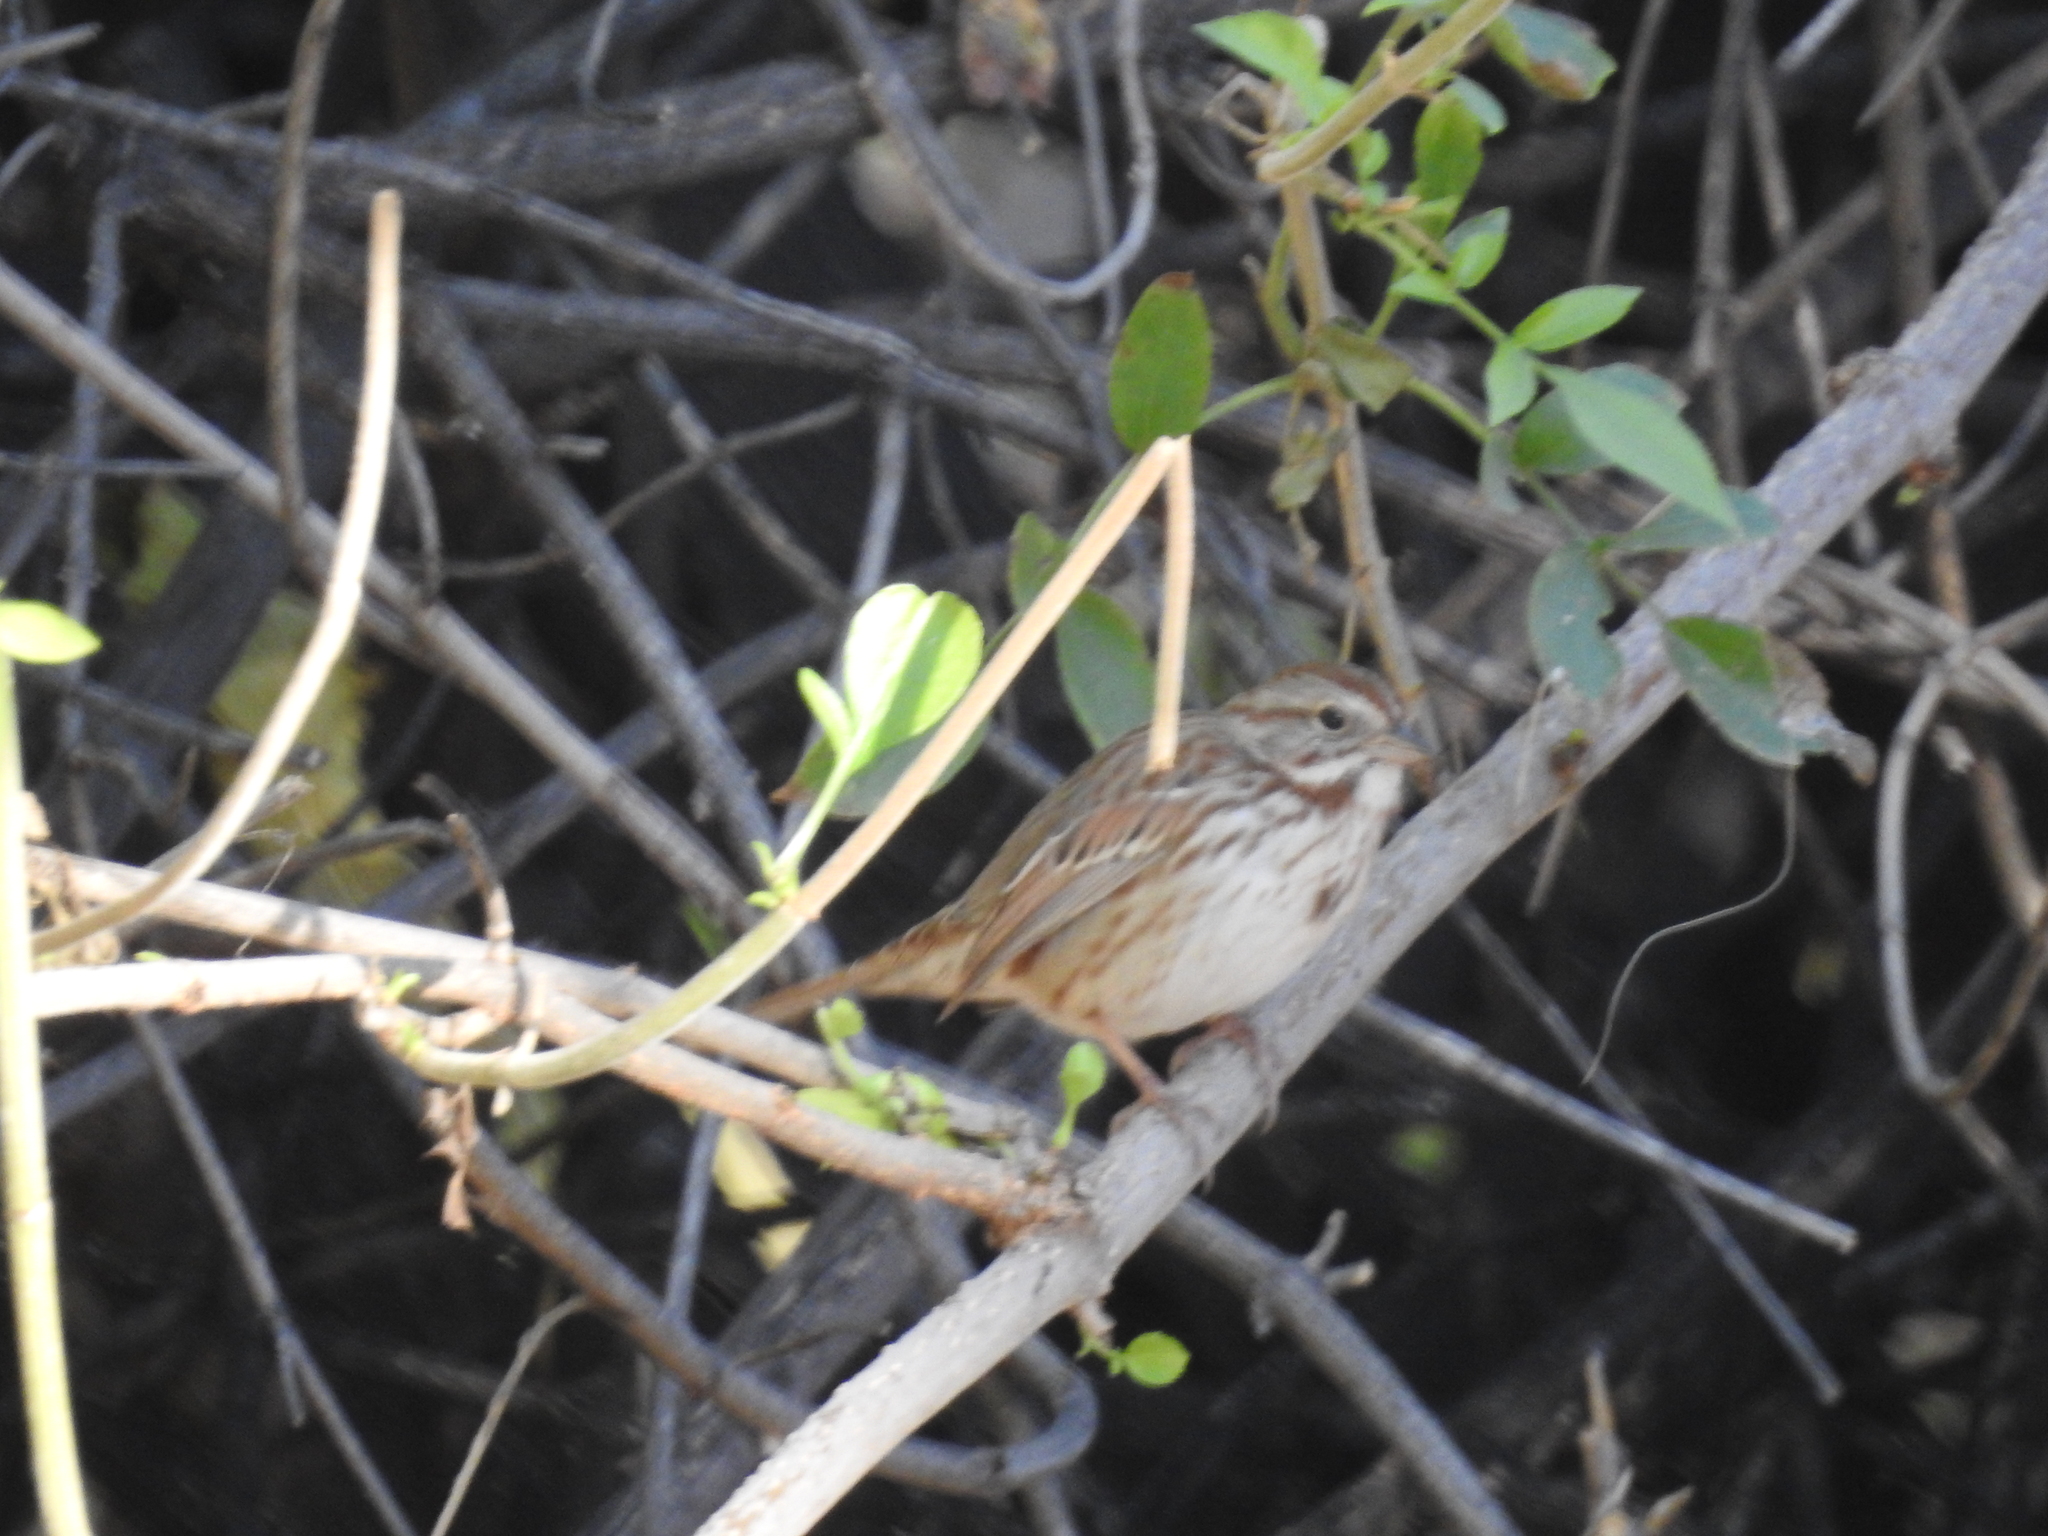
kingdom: Animalia
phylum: Chordata
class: Aves
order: Passeriformes
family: Passerellidae
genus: Melospiza
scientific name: Melospiza melodia
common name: Song sparrow
